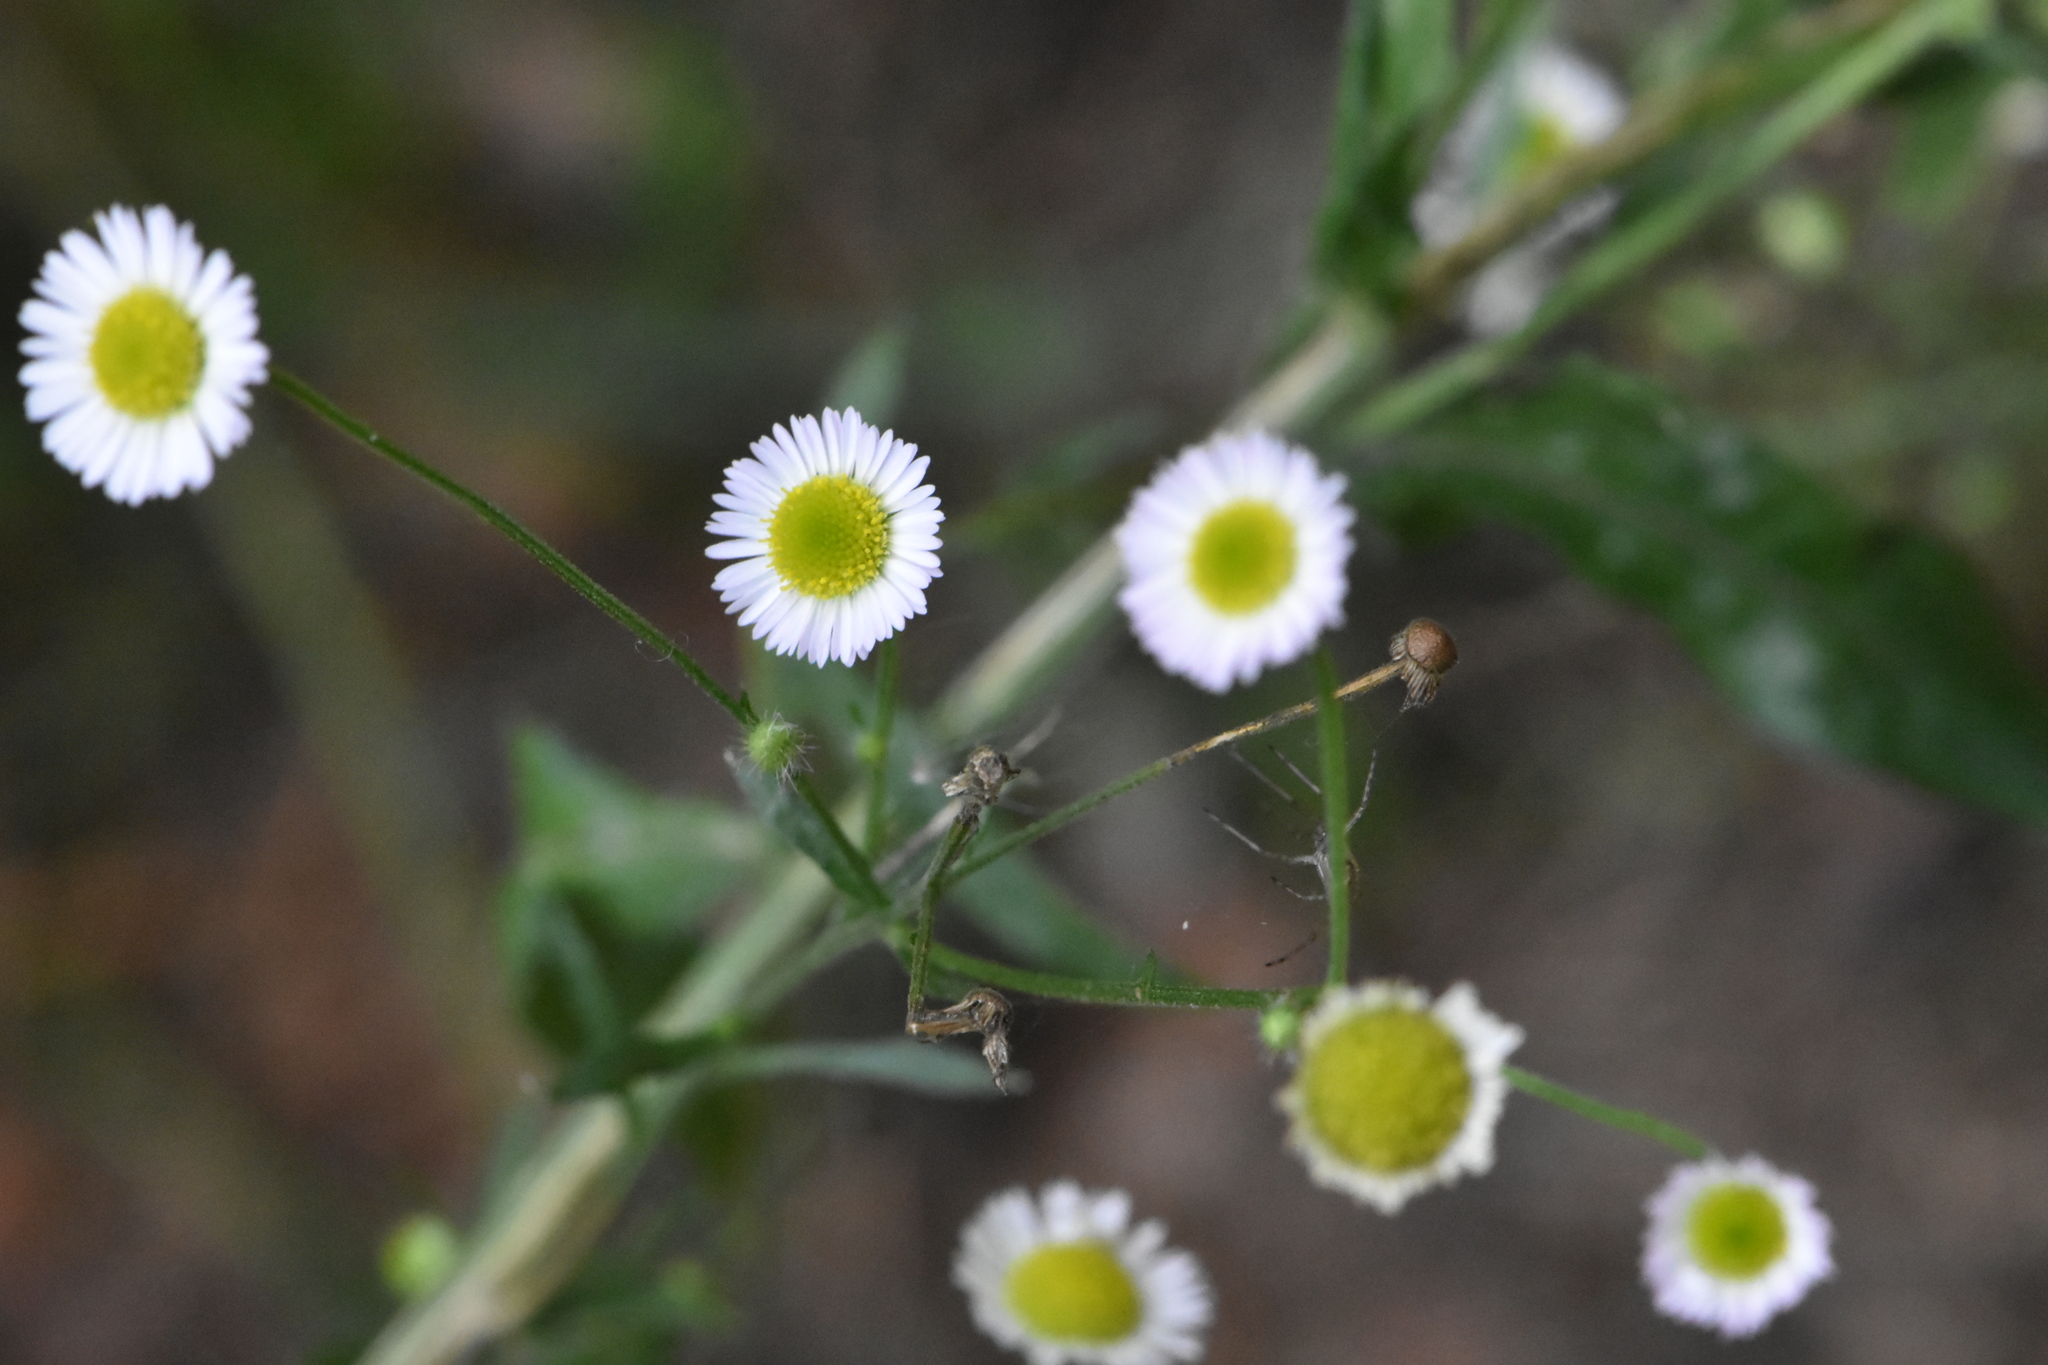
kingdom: Plantae
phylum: Tracheophyta
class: Magnoliopsida
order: Asterales
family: Asteraceae
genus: Erigeron
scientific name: Erigeron annuus
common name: Tall fleabane
